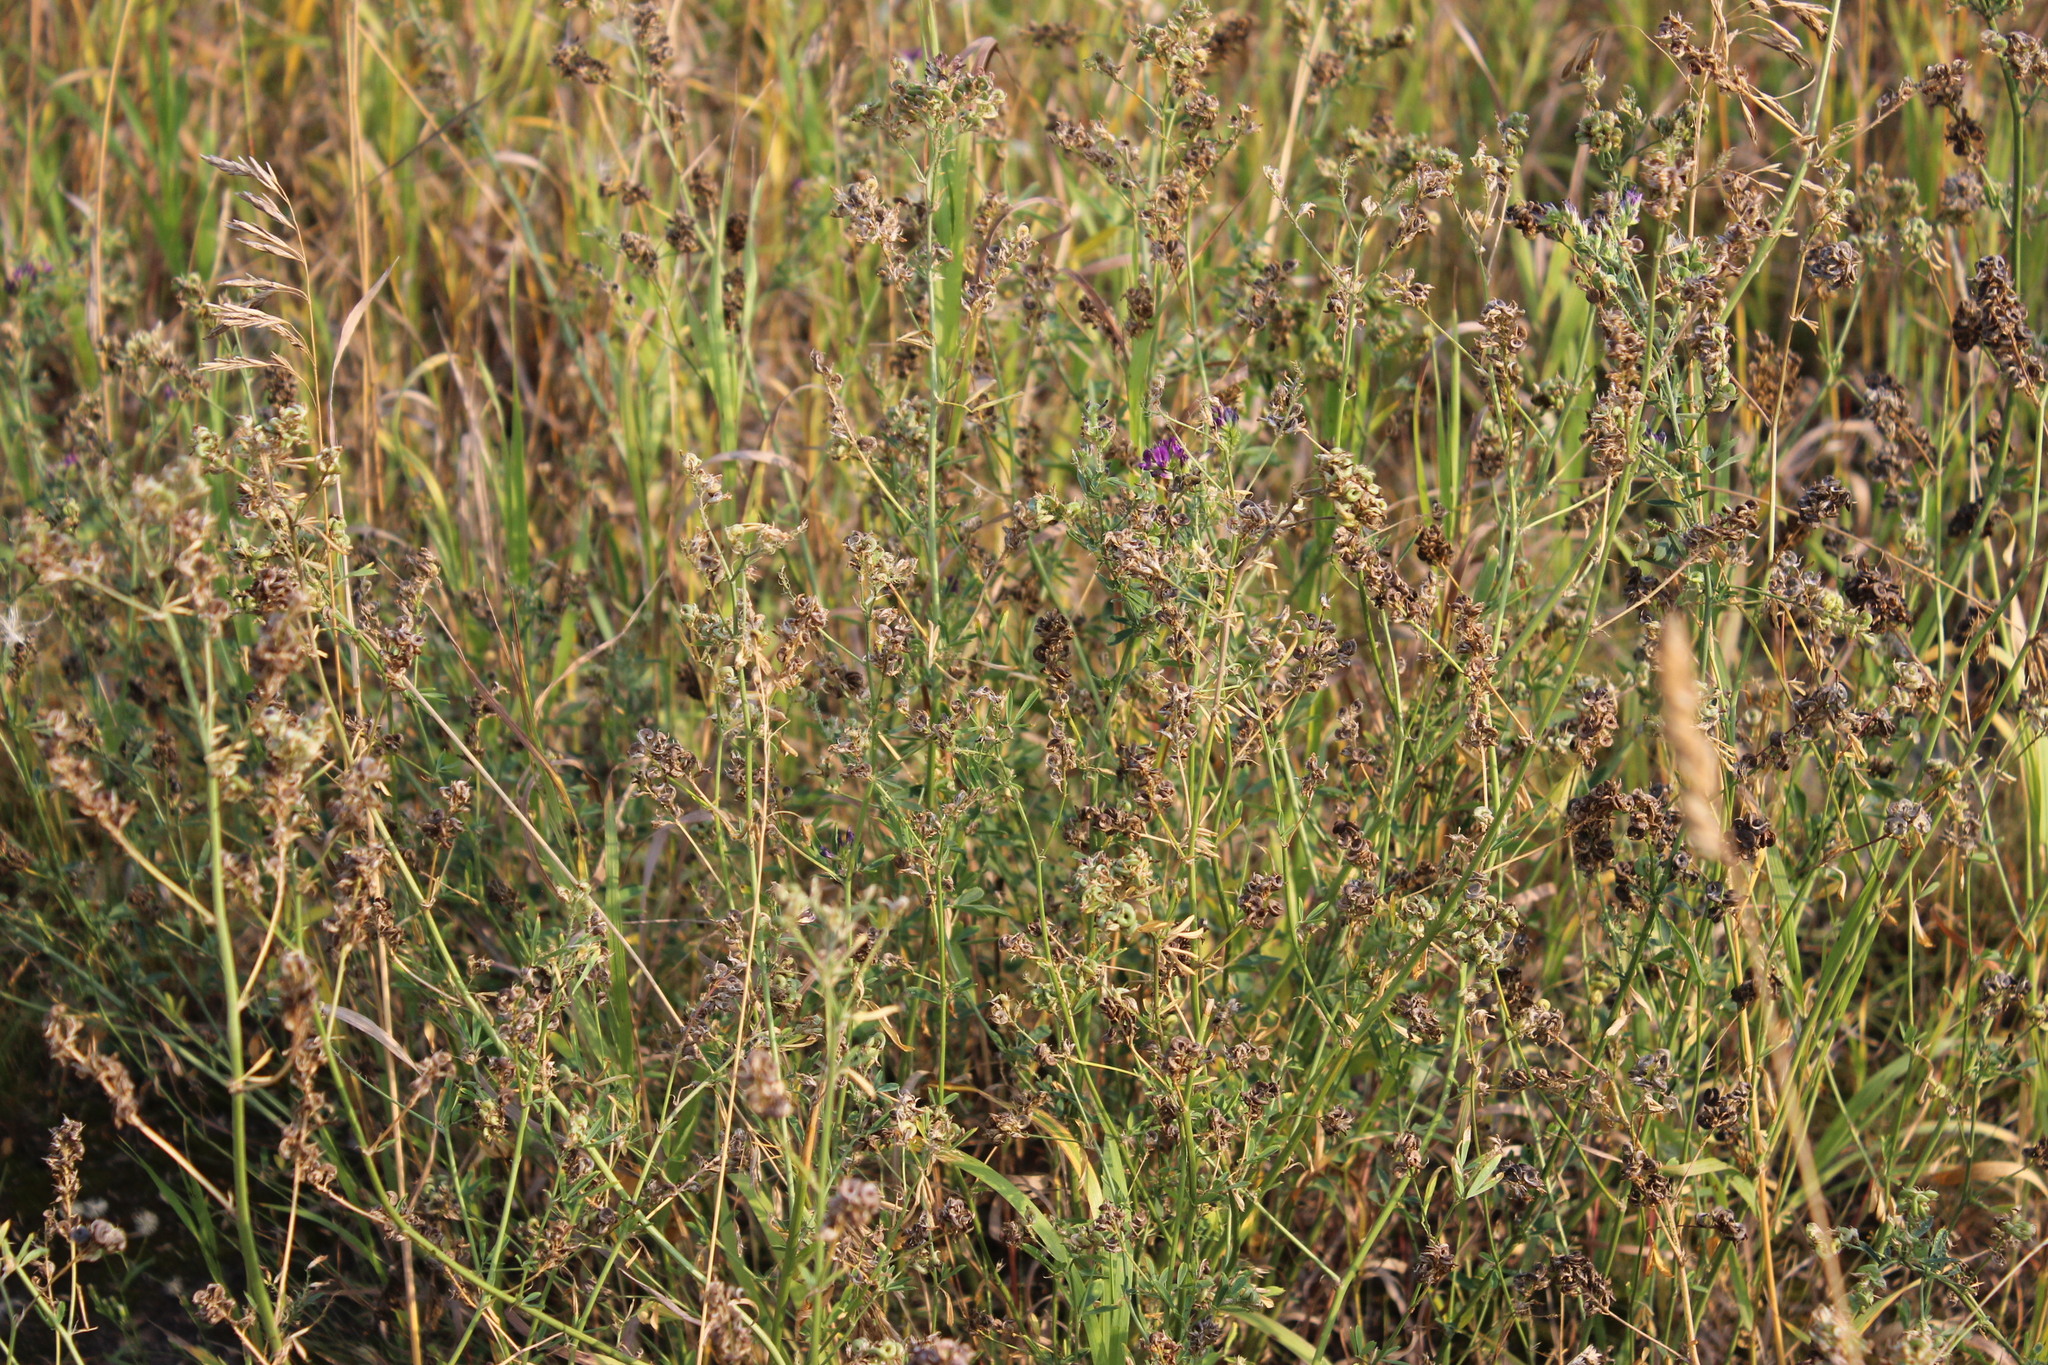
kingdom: Plantae
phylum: Tracheophyta
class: Magnoliopsida
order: Fabales
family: Fabaceae
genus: Medicago
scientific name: Medicago varia
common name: Sand lucerne
